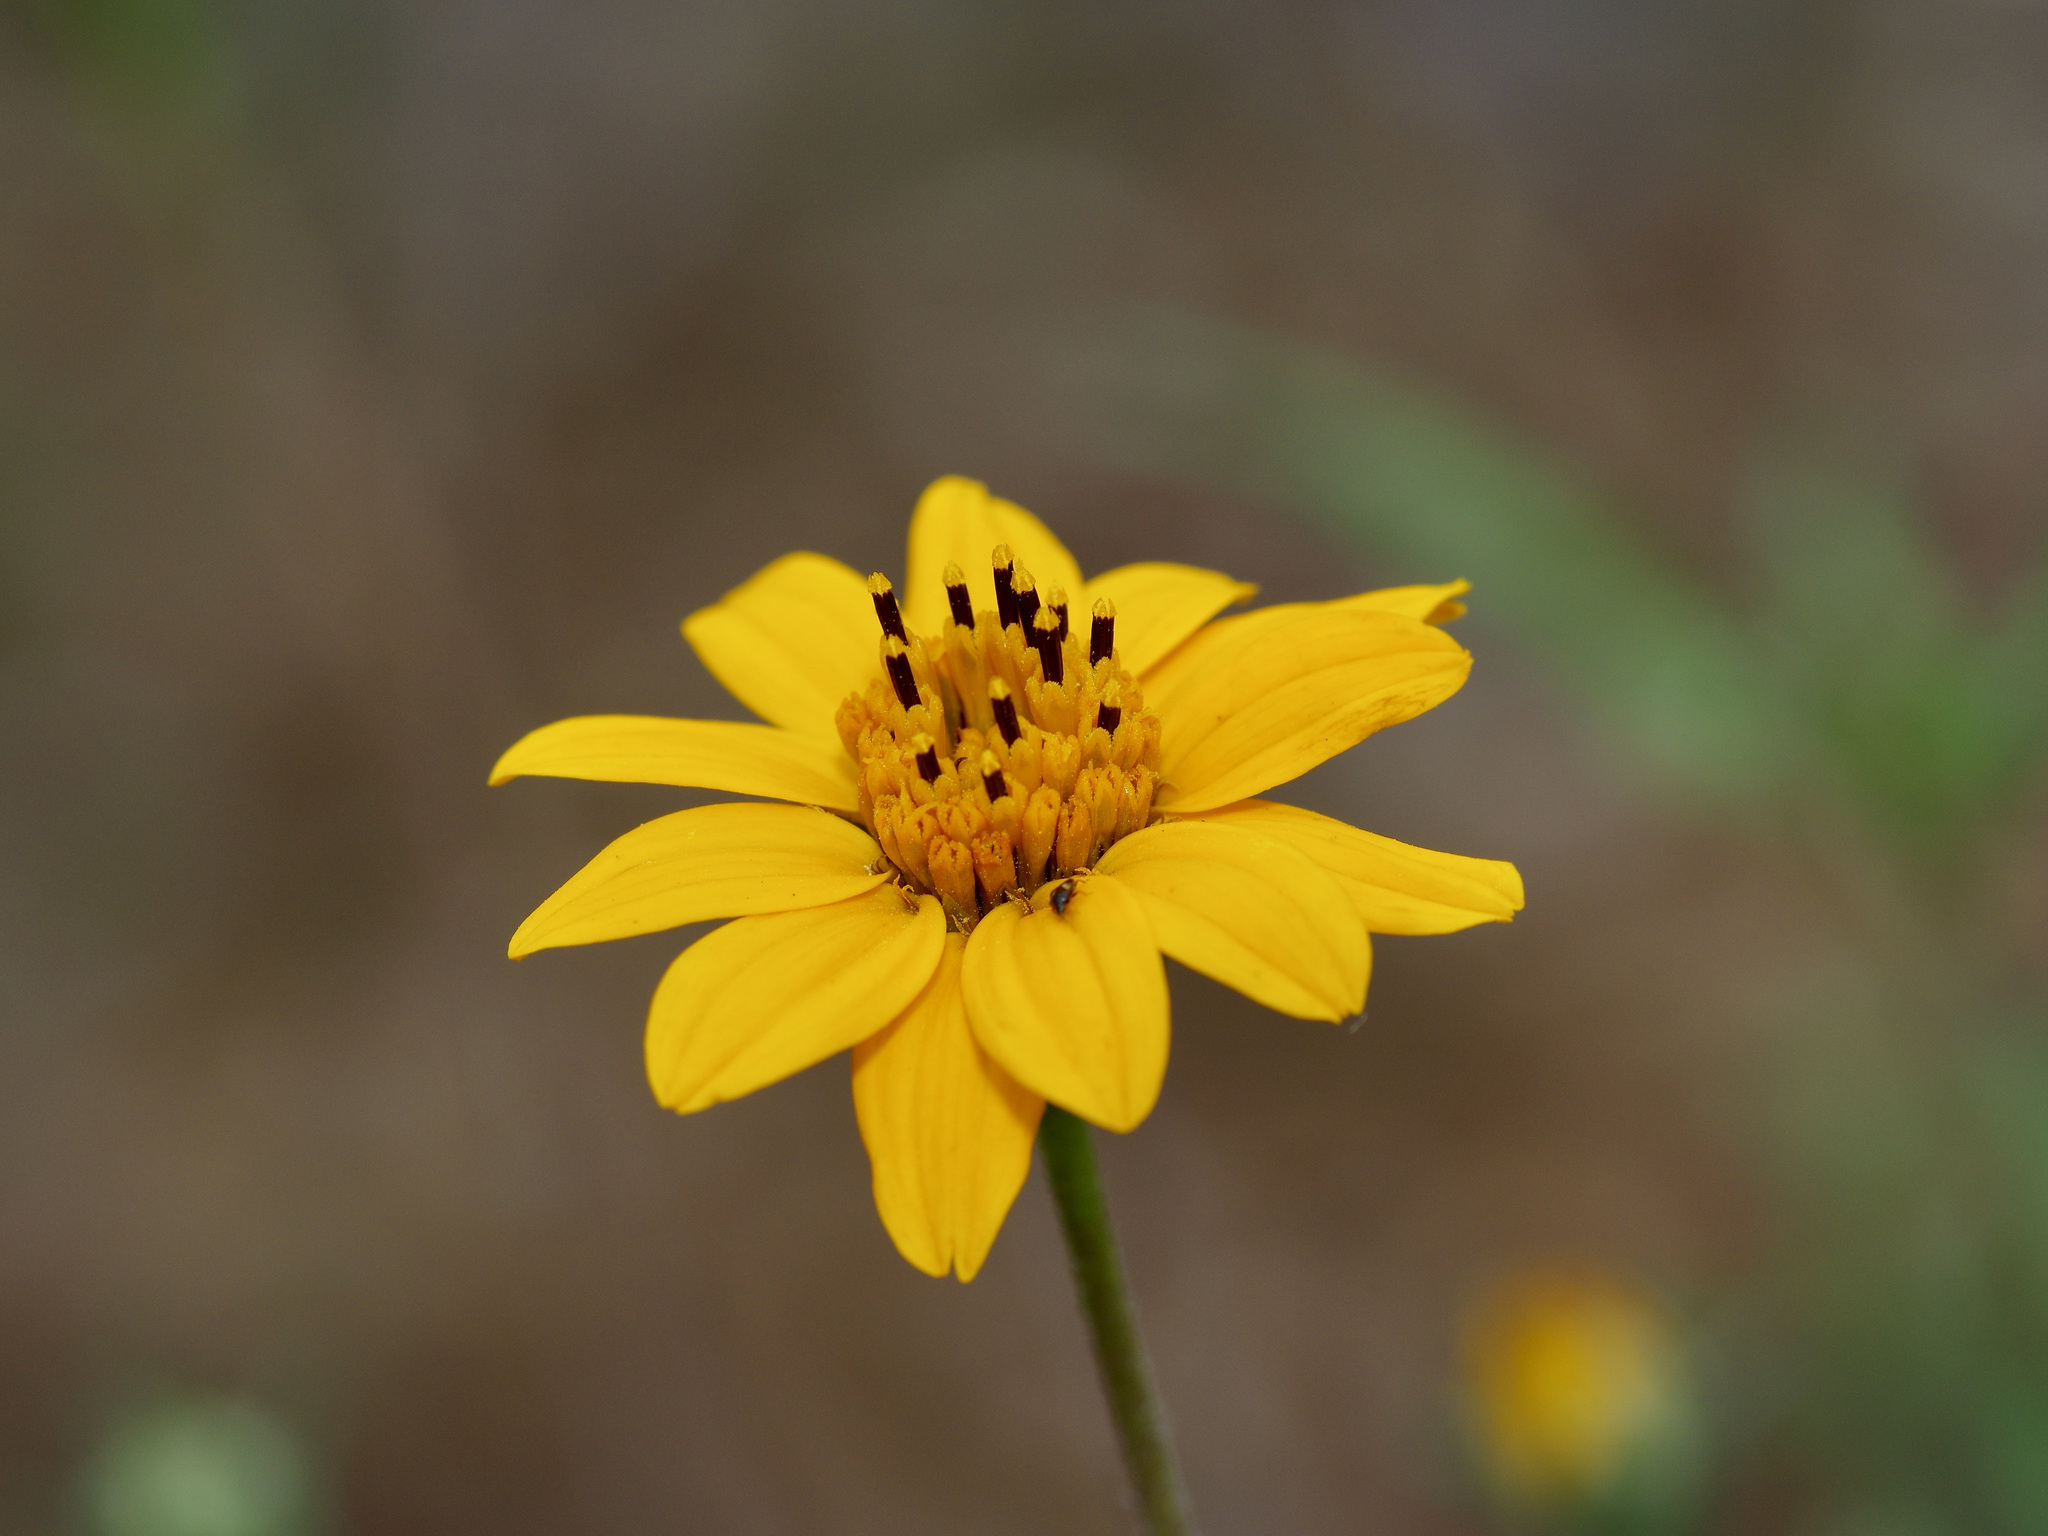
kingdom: Plantae
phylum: Tracheophyta
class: Magnoliopsida
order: Asterales
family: Asteraceae
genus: Wedelia
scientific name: Wedelia acapulcensis
